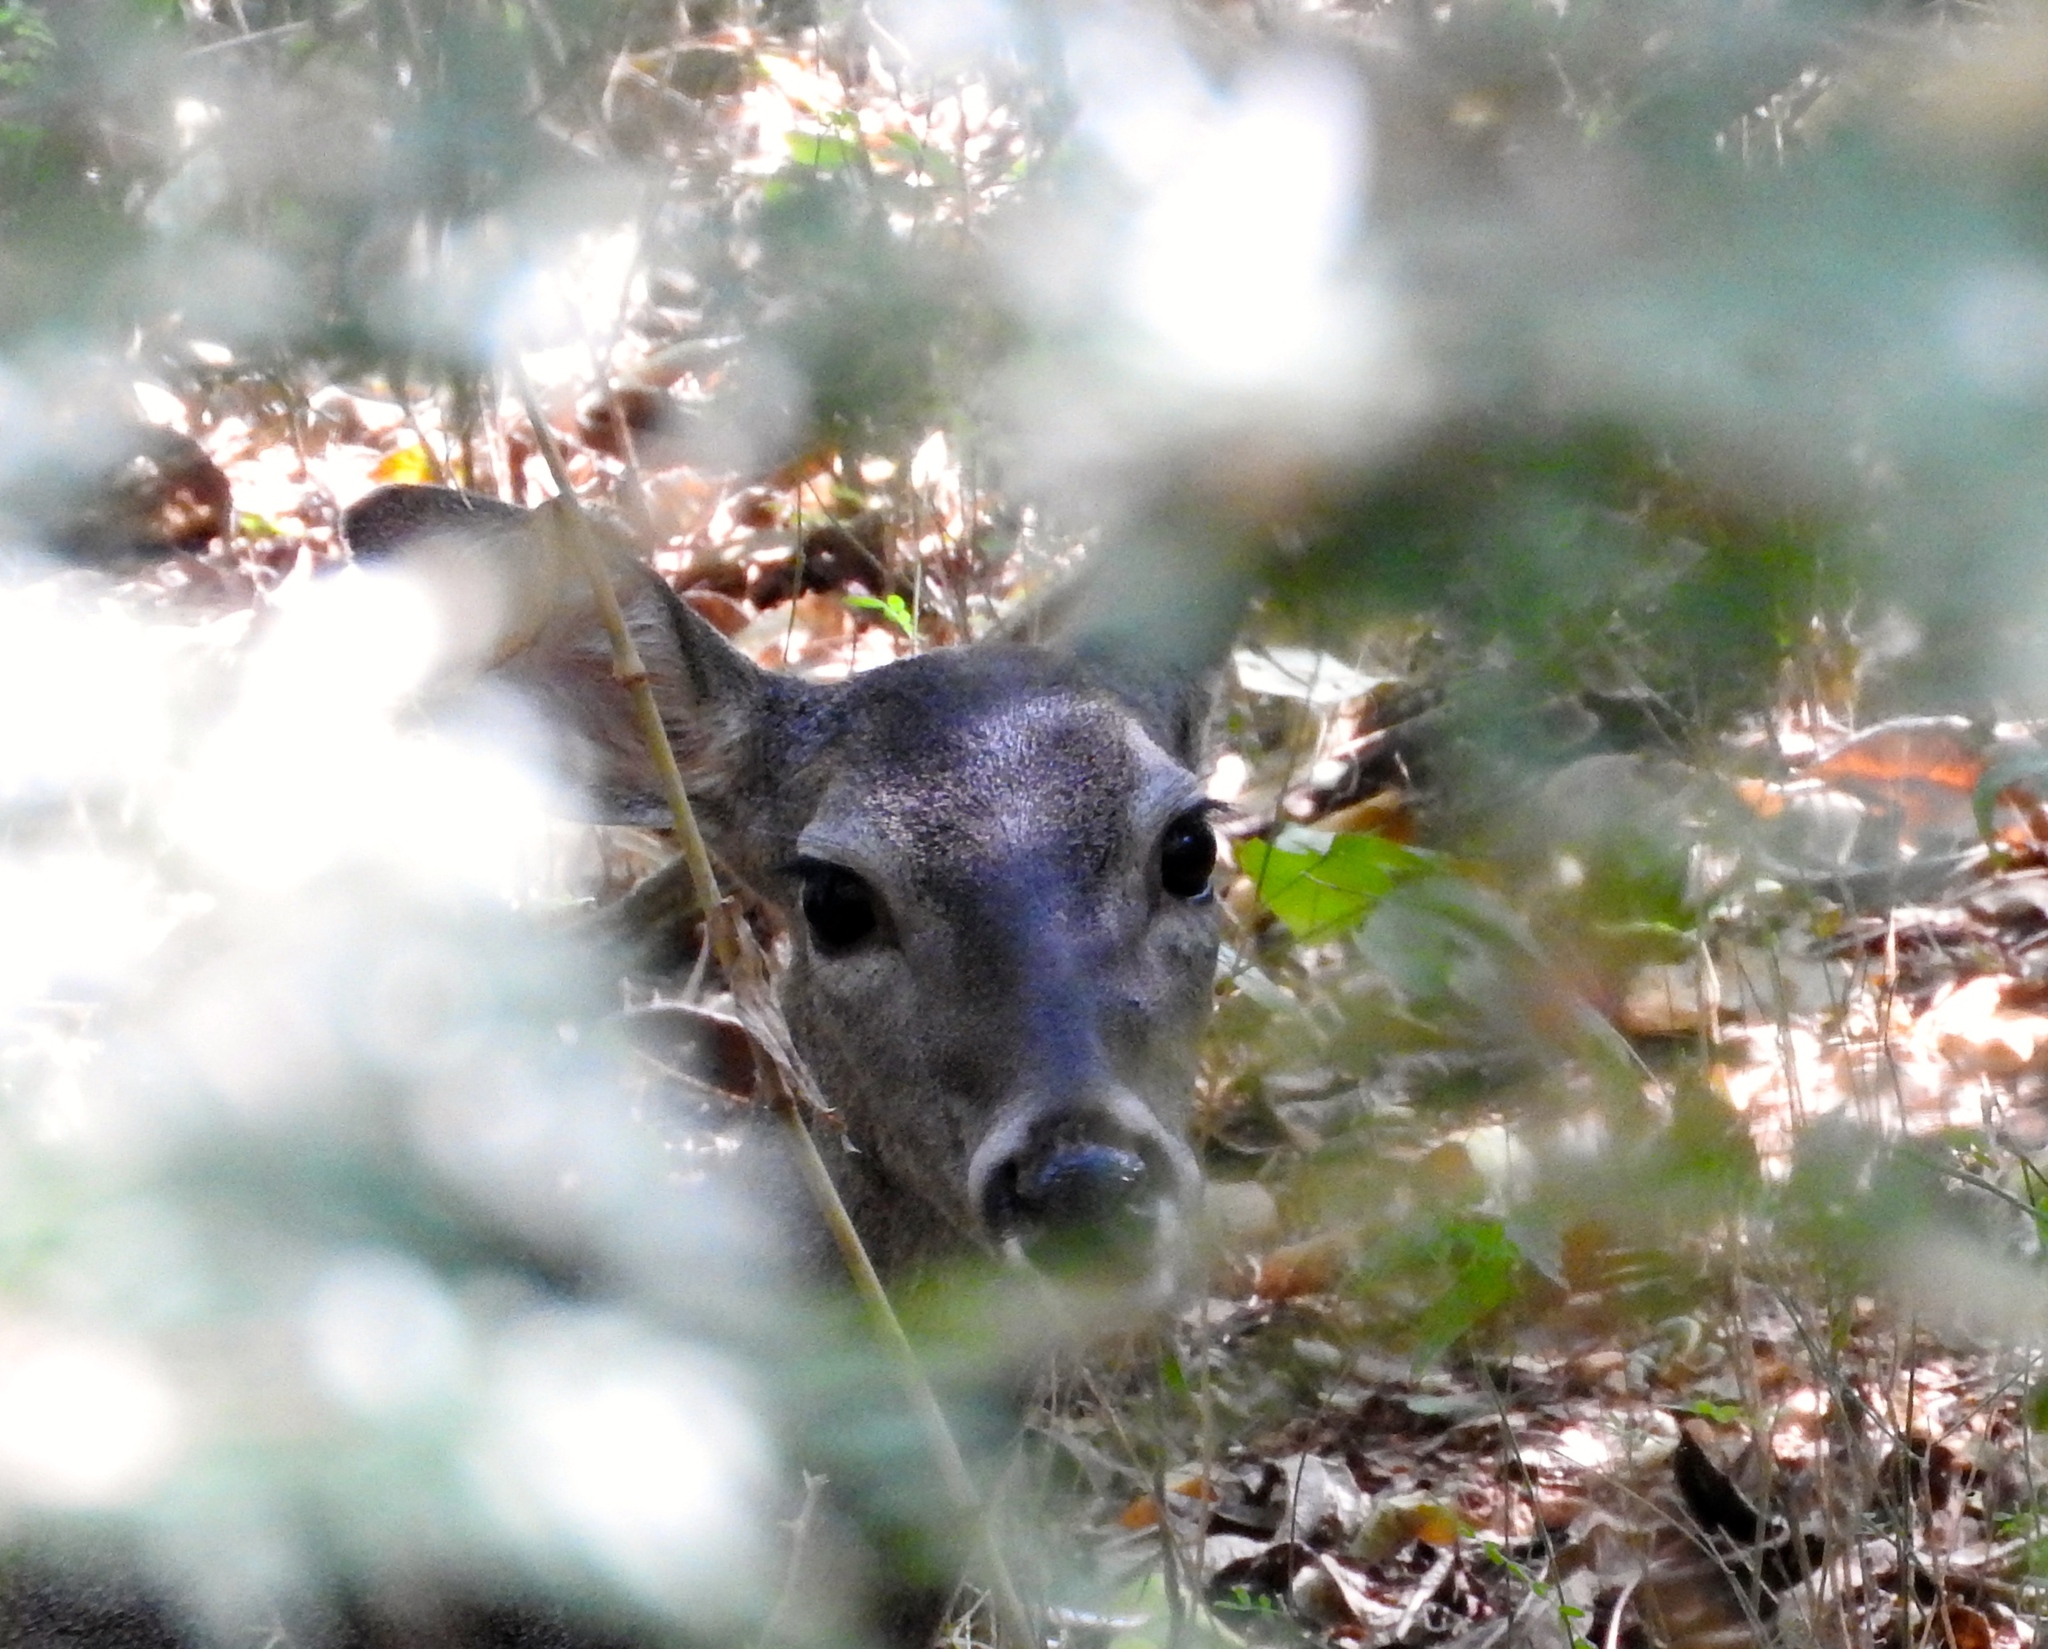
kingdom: Animalia
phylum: Chordata
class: Mammalia
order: Artiodactyla
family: Cervidae
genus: Odocoileus
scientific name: Odocoileus virginianus
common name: White-tailed deer
